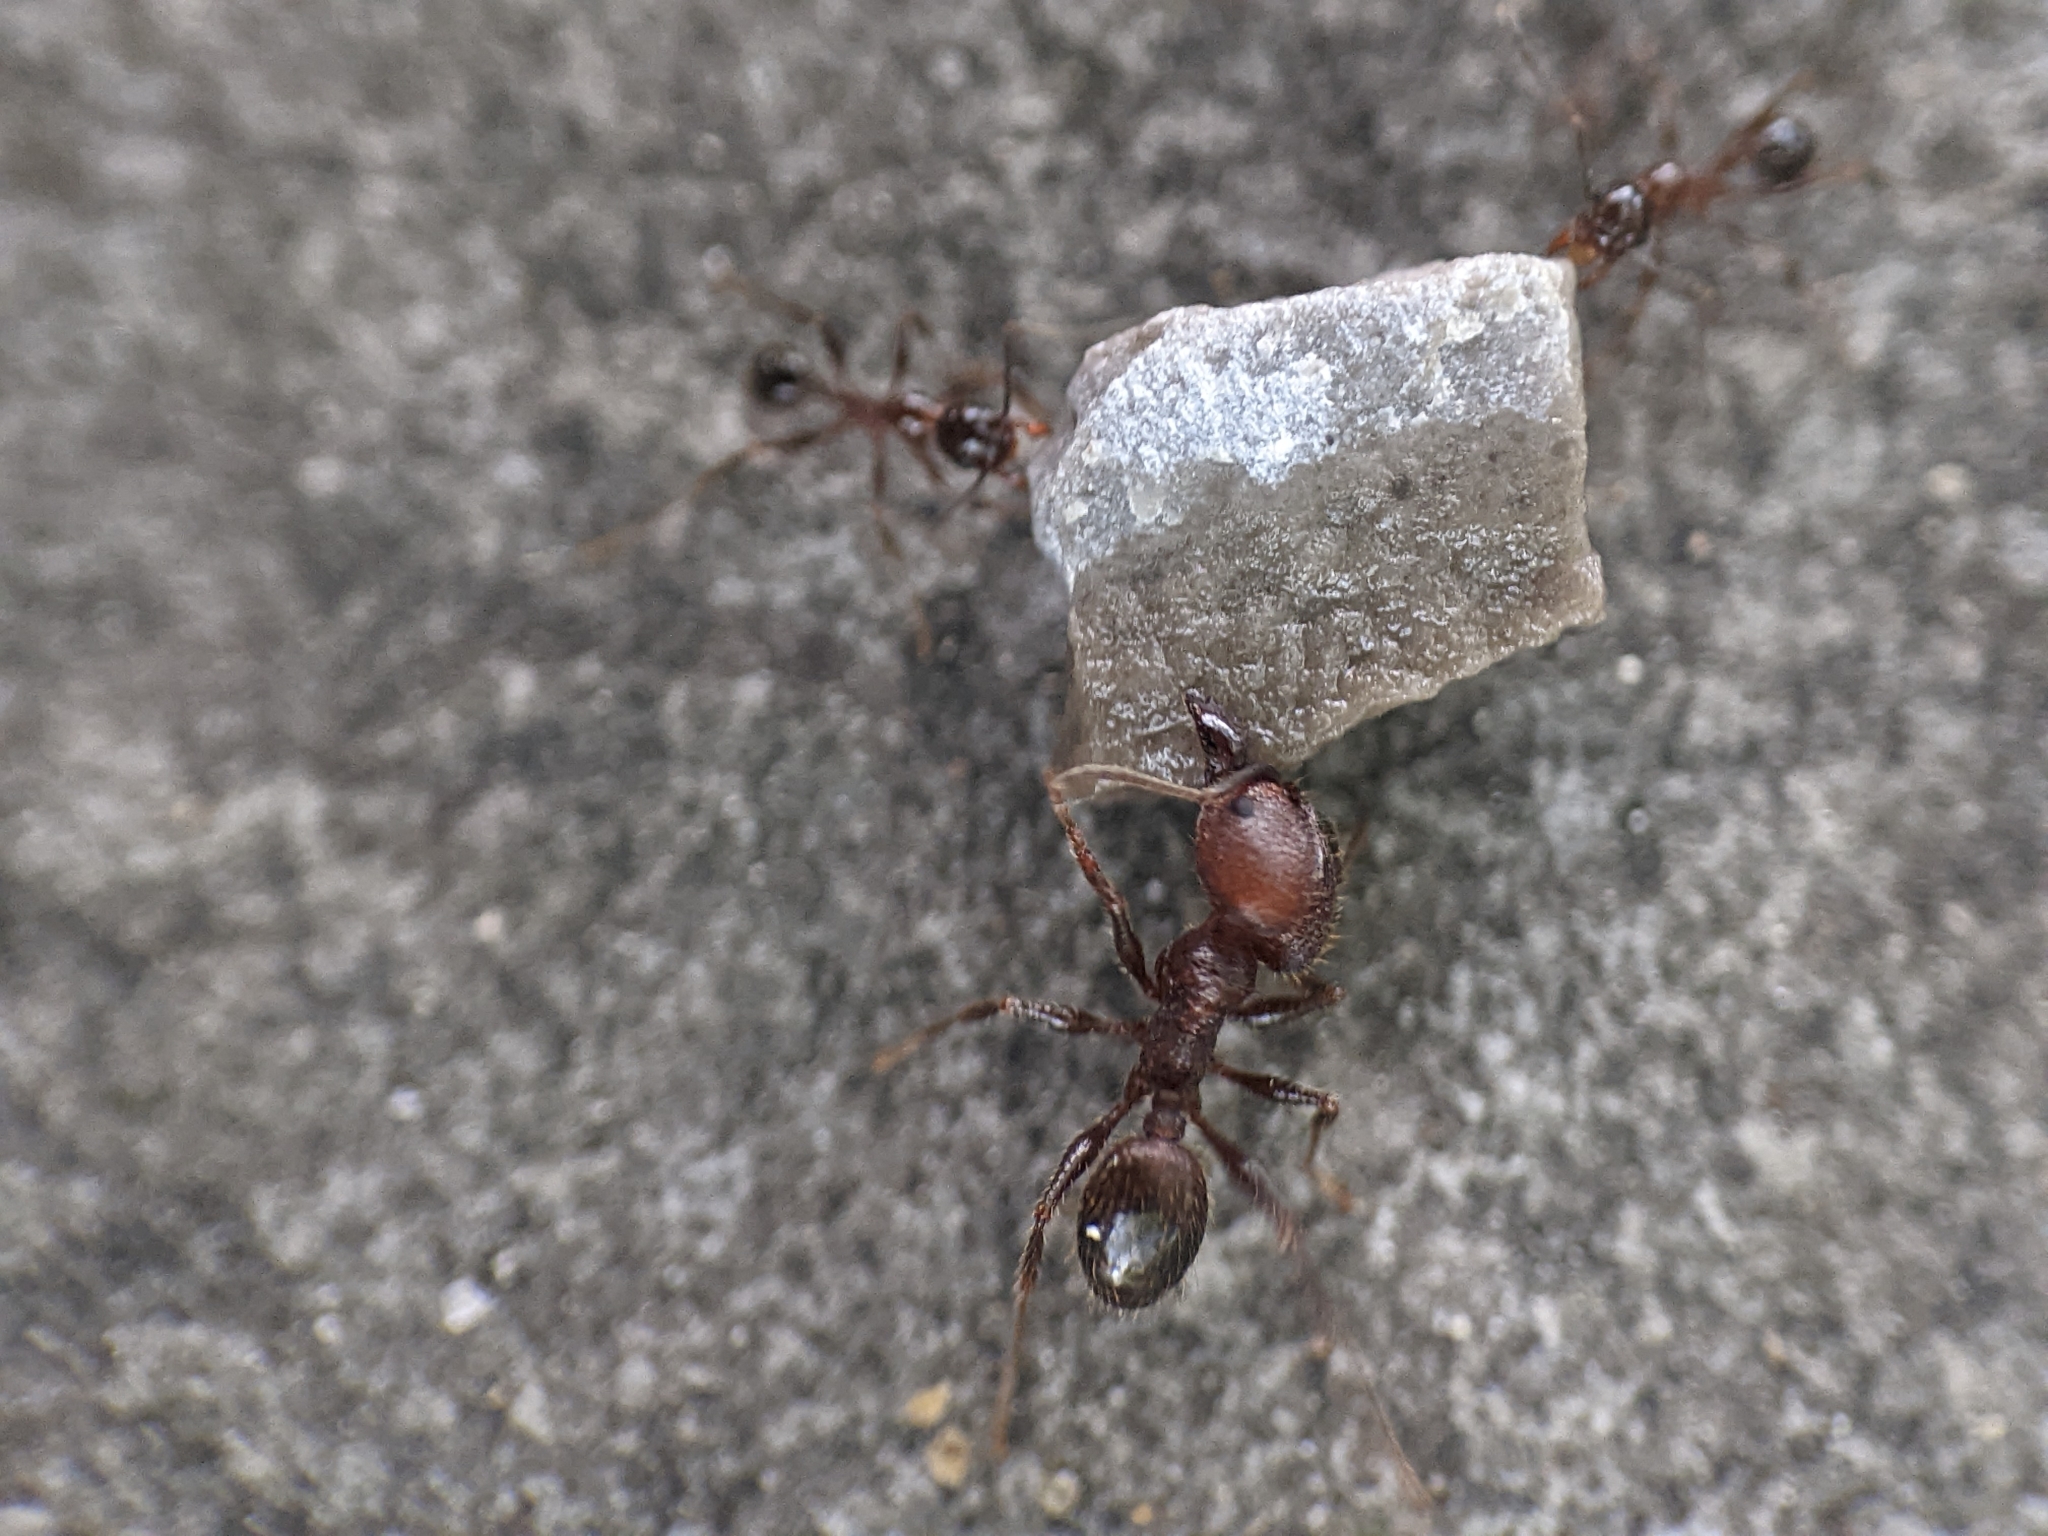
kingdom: Animalia
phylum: Arthropoda
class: Insecta
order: Hymenoptera
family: Formicidae
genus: Pheidole
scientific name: Pheidole obscurithorax
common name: Obscure big-headed ant
